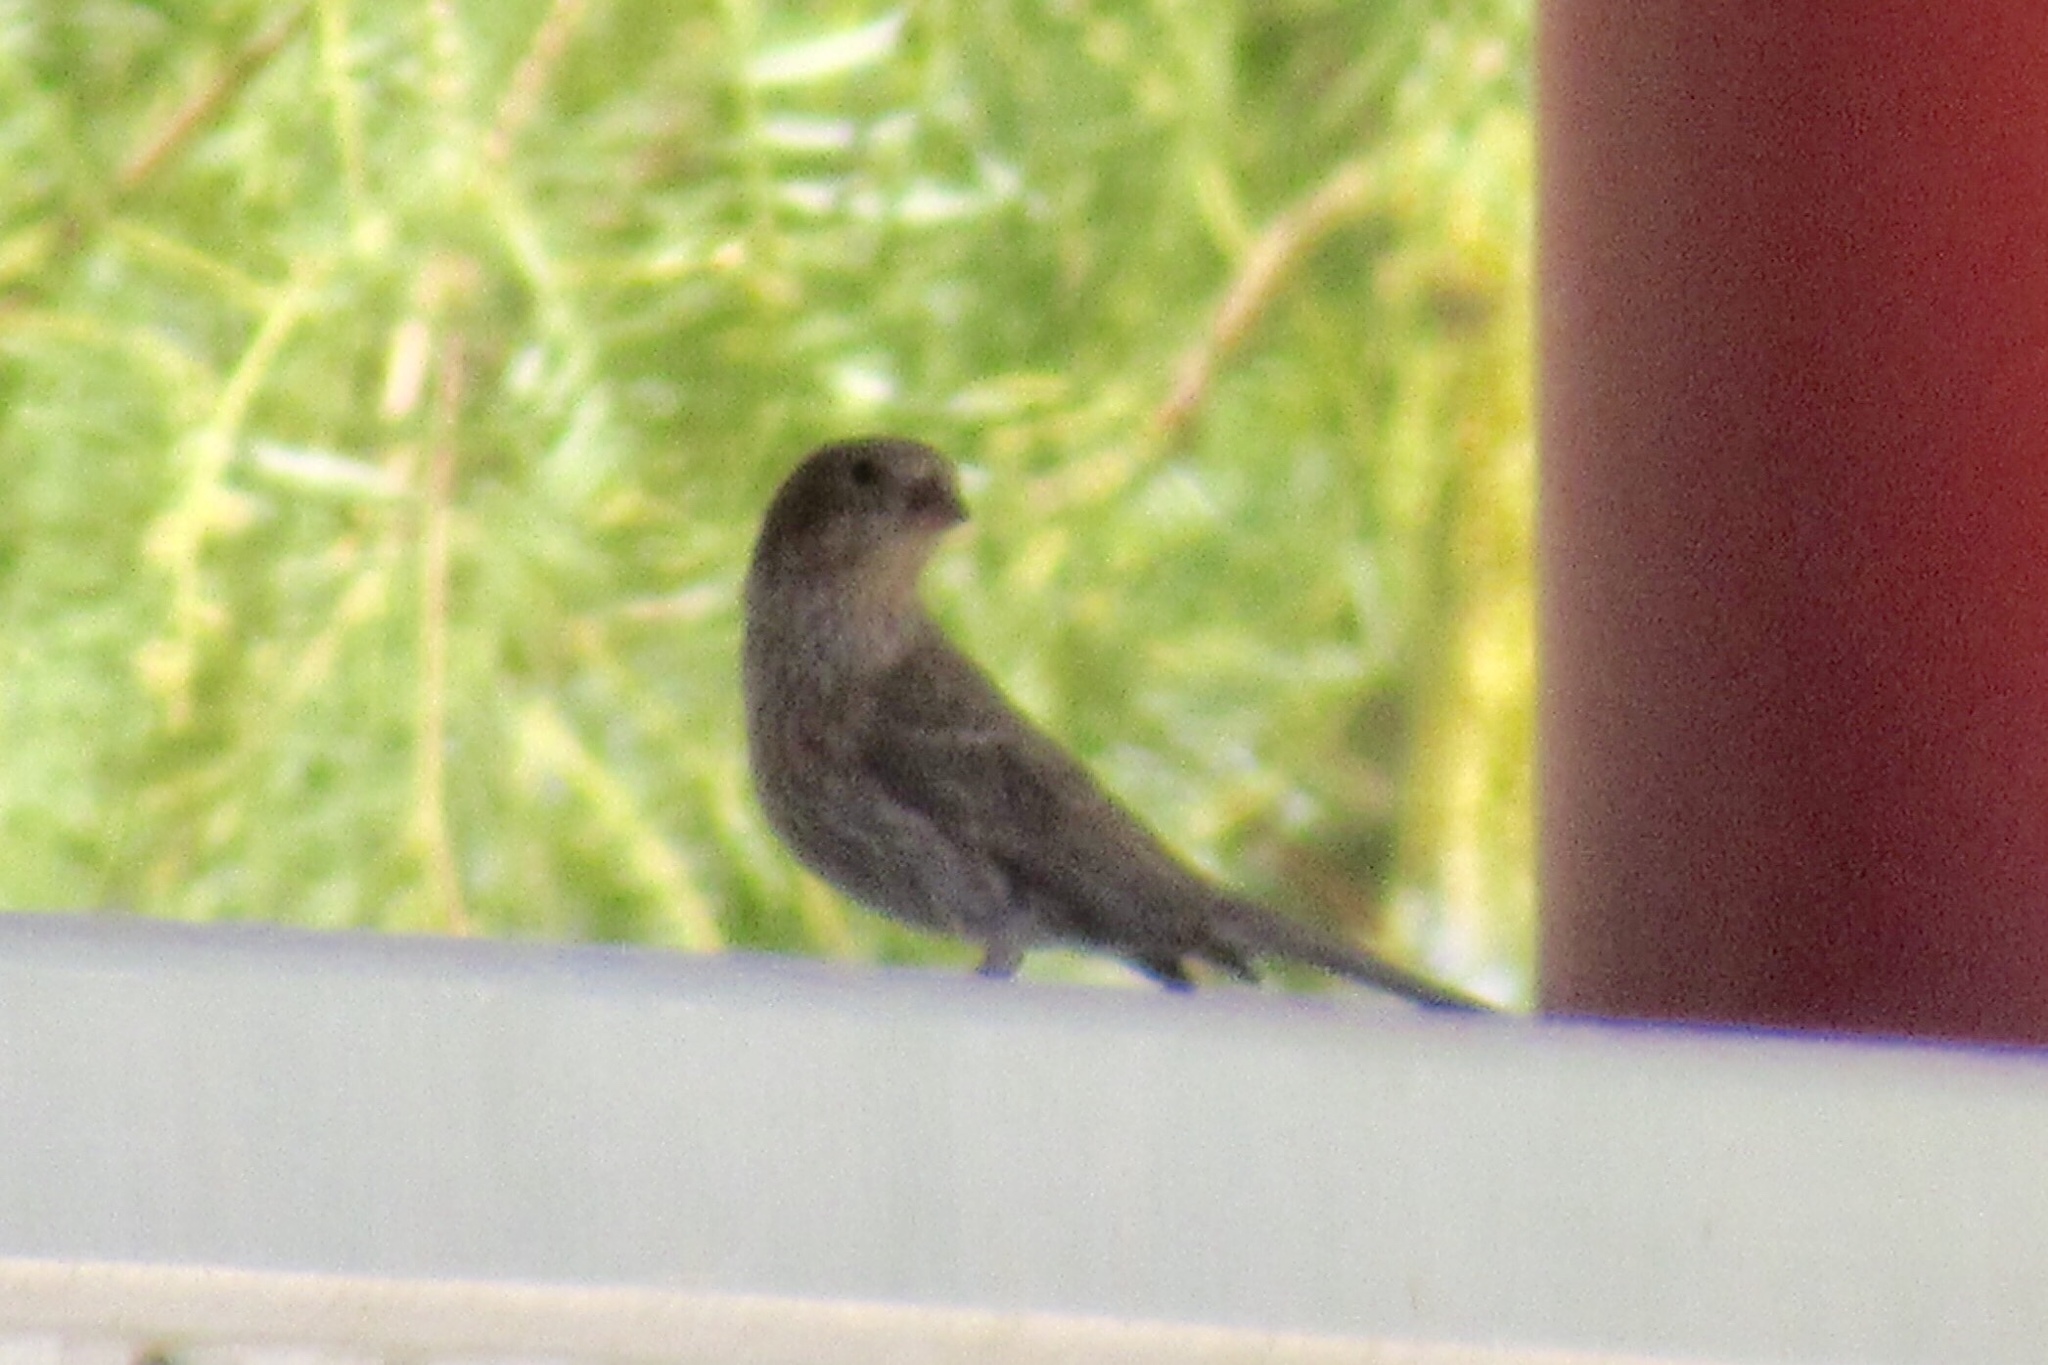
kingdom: Animalia
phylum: Chordata
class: Aves
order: Passeriformes
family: Fringillidae
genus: Haemorhous
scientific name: Haemorhous mexicanus
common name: House finch
